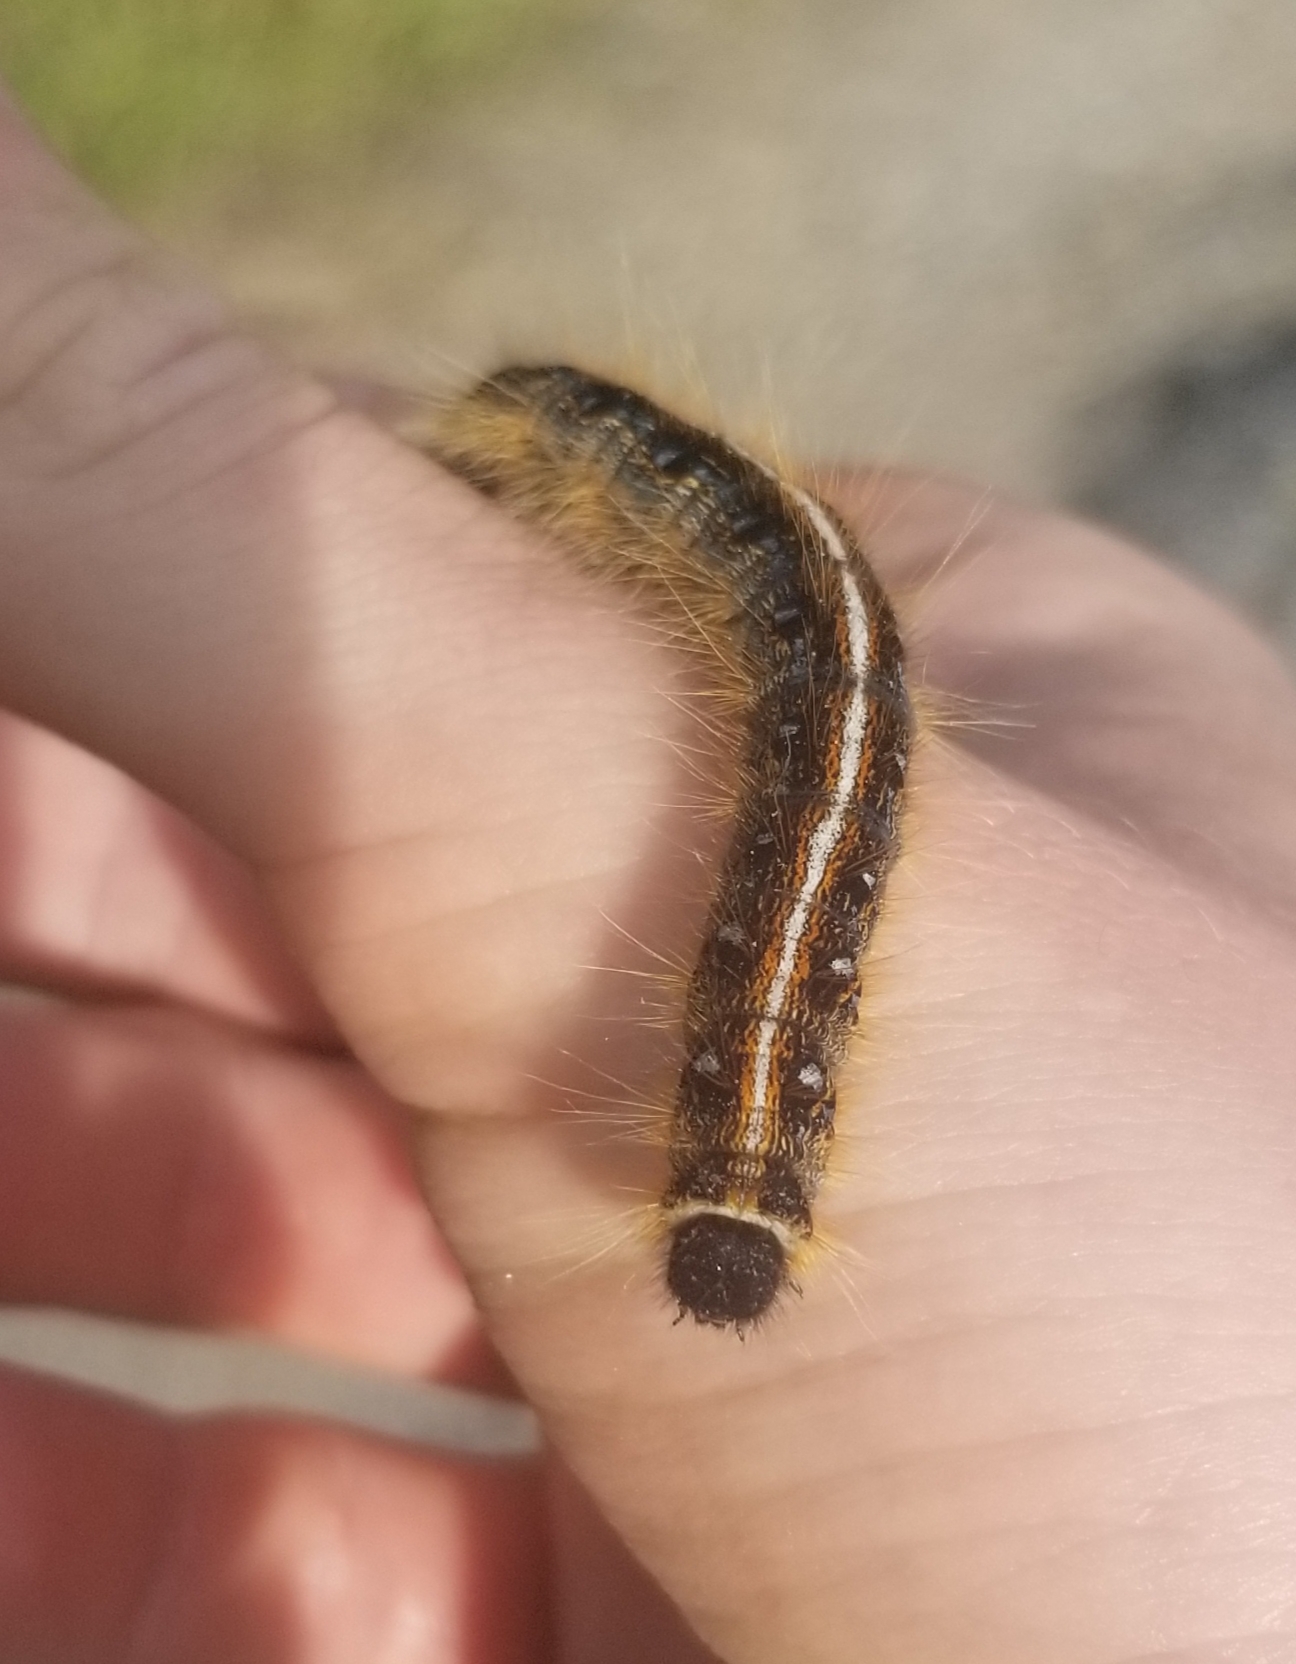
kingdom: Animalia
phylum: Arthropoda
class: Insecta
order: Lepidoptera
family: Lasiocampidae
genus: Malacosoma
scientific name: Malacosoma americana
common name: Eastern tent caterpillar moth
